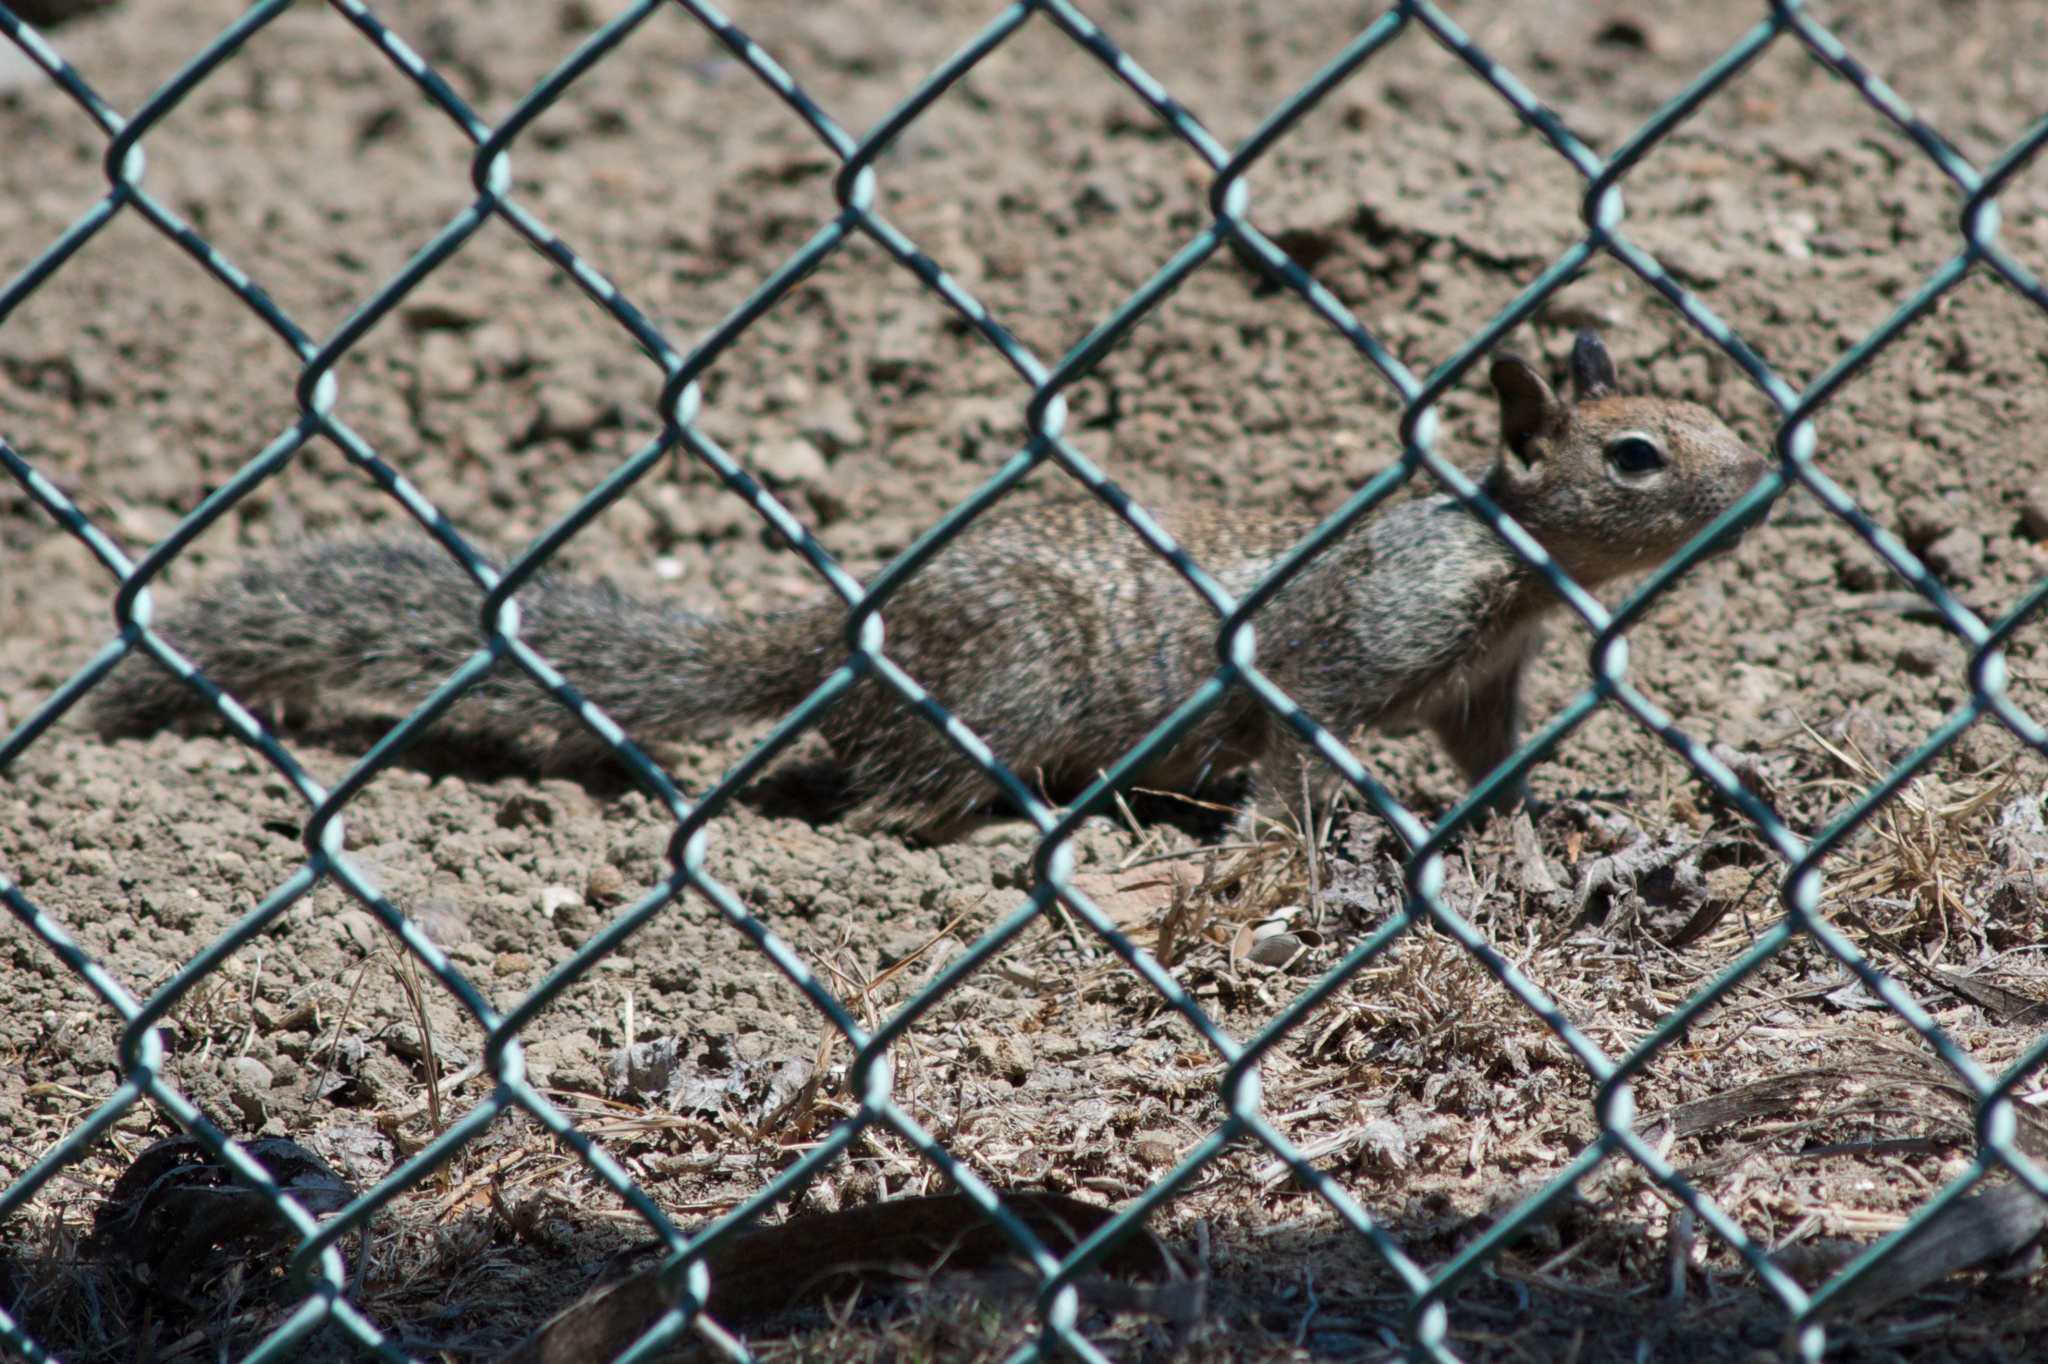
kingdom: Animalia
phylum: Chordata
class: Mammalia
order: Rodentia
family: Sciuridae
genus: Otospermophilus
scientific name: Otospermophilus beecheyi
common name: California ground squirrel
